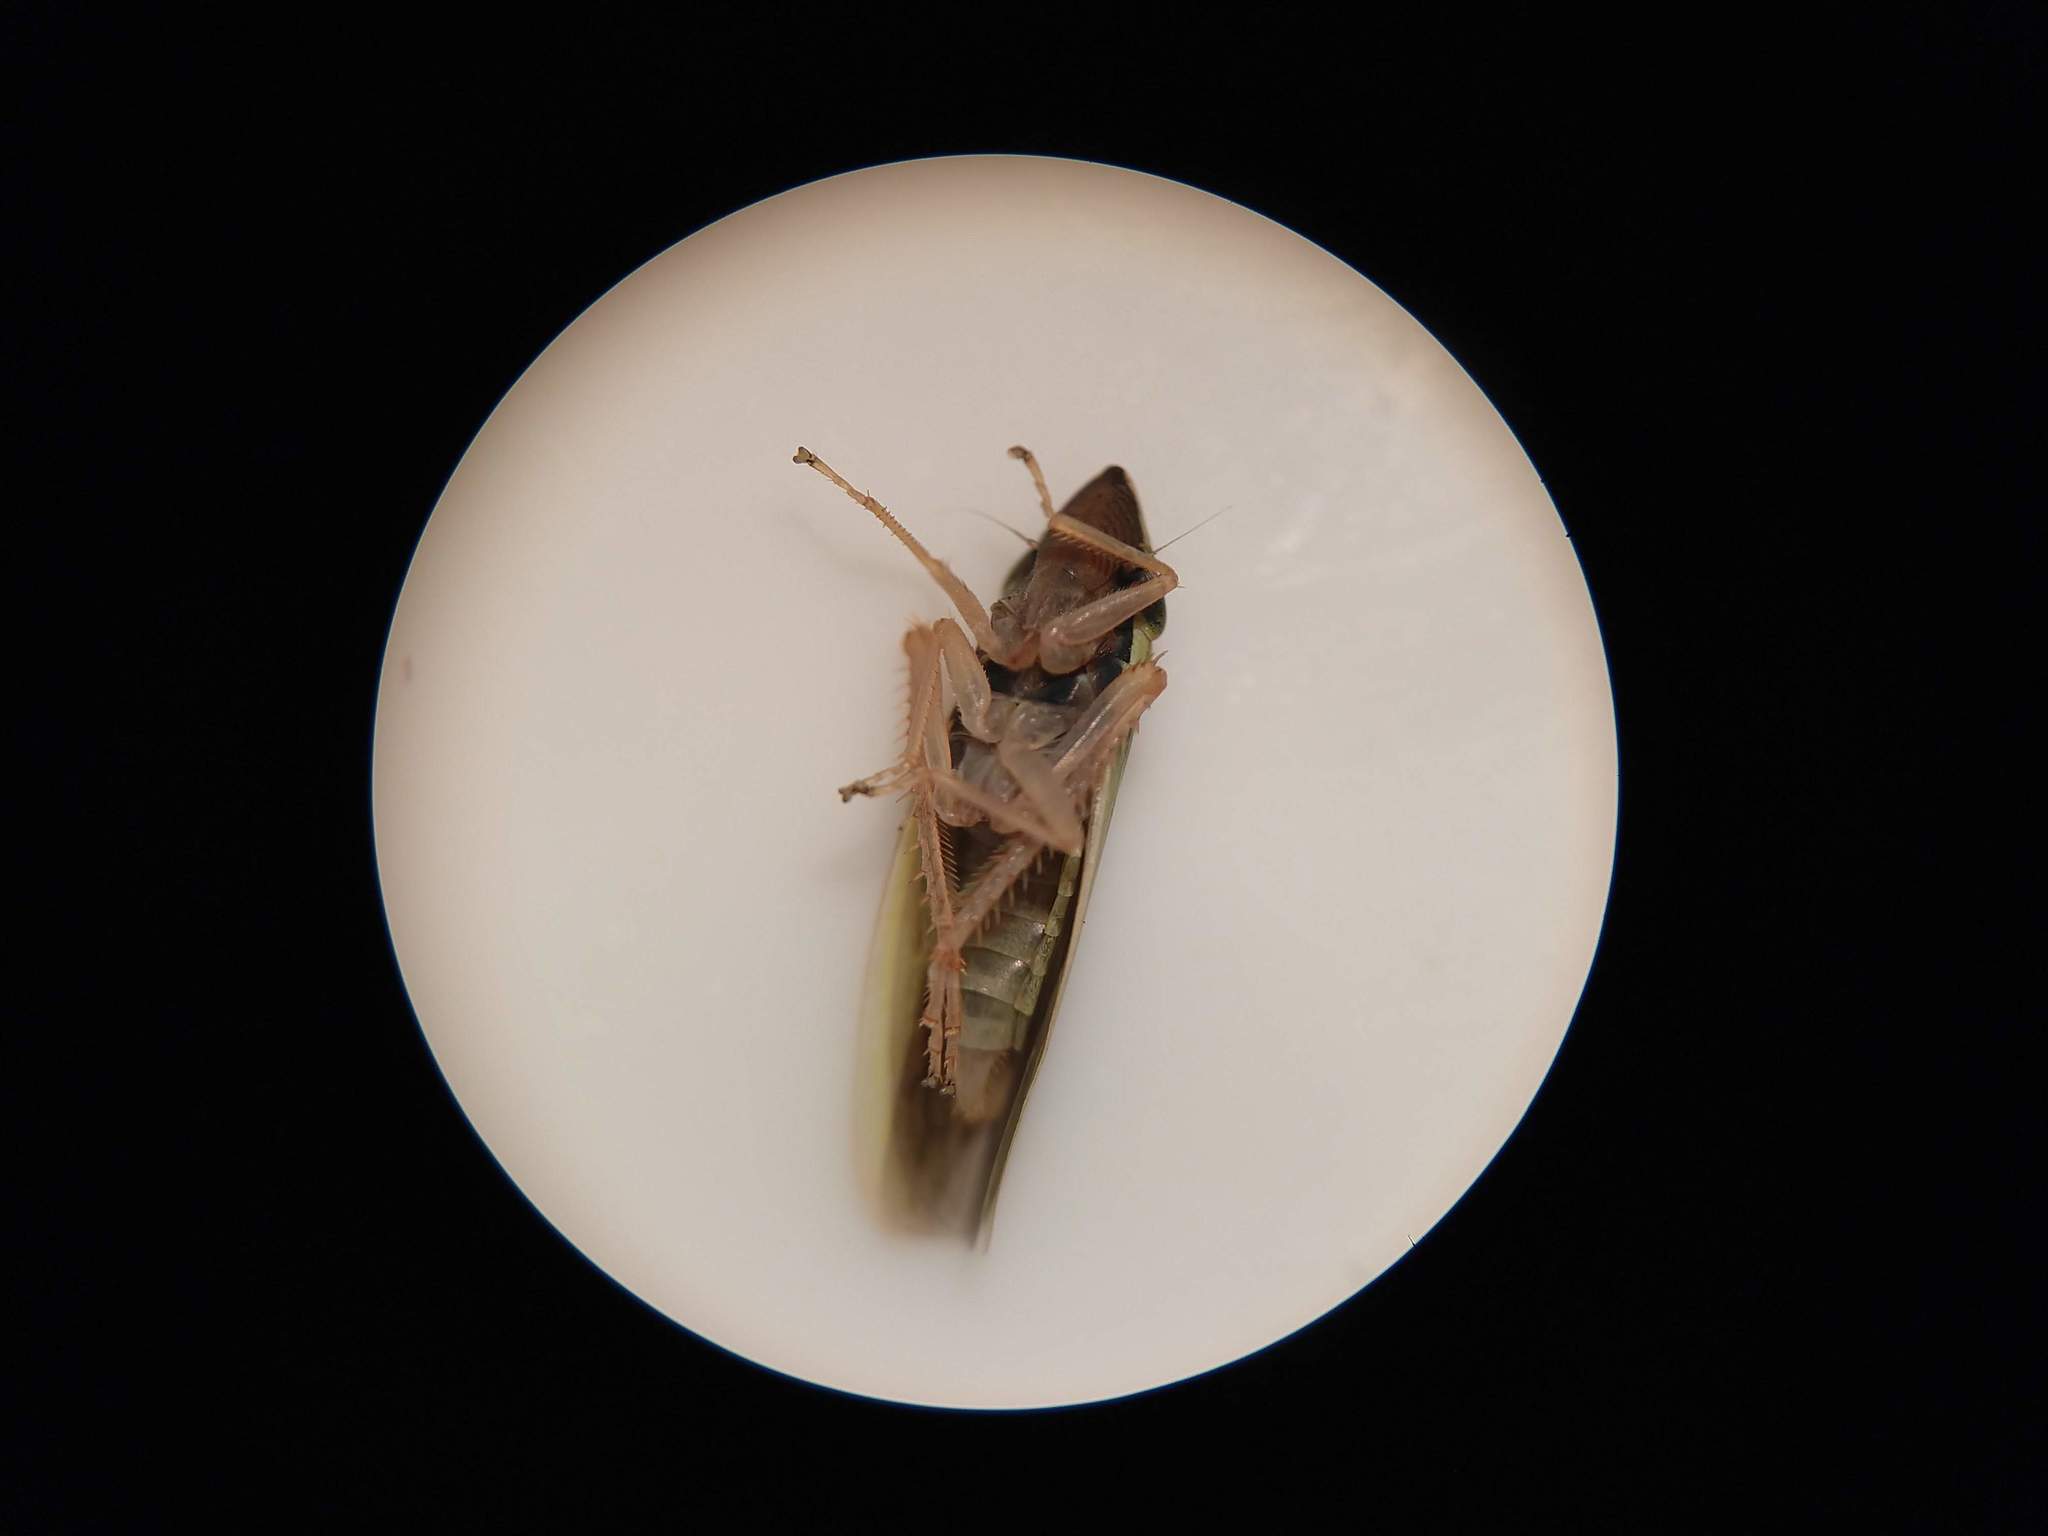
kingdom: Animalia
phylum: Arthropoda
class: Insecta
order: Hemiptera
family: Cicadellidae
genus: Draeculacephala
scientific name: Draeculacephala antica
